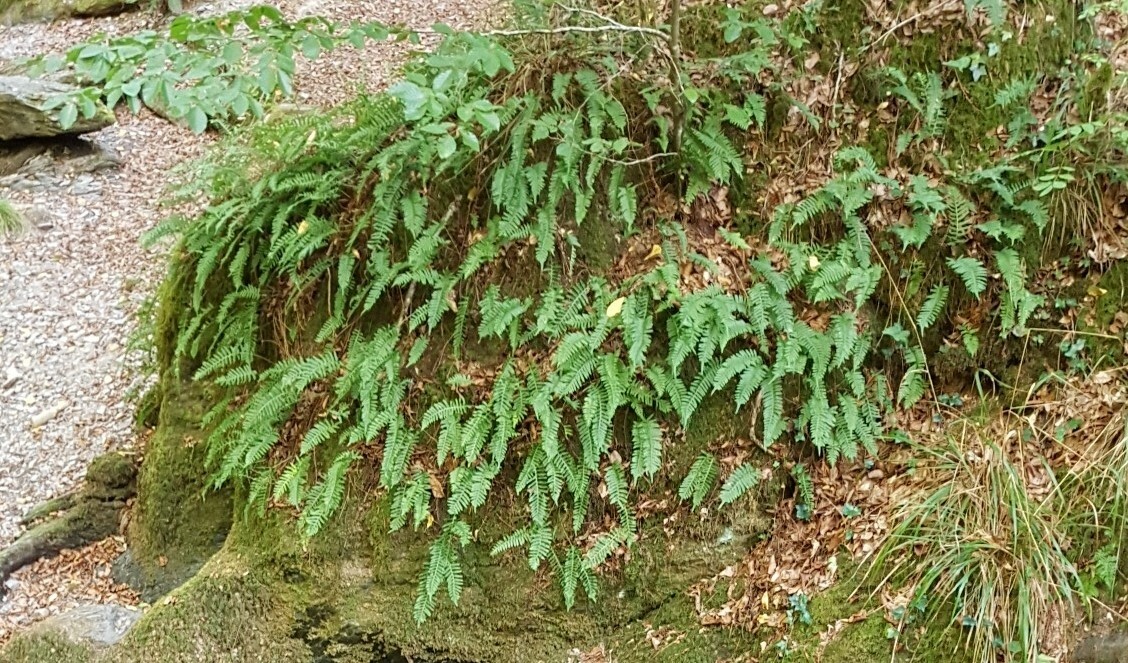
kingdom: Plantae
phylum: Tracheophyta
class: Polypodiopsida
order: Polypodiales
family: Polypodiaceae
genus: Polypodium
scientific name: Polypodium vulgare
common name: Common polypody
